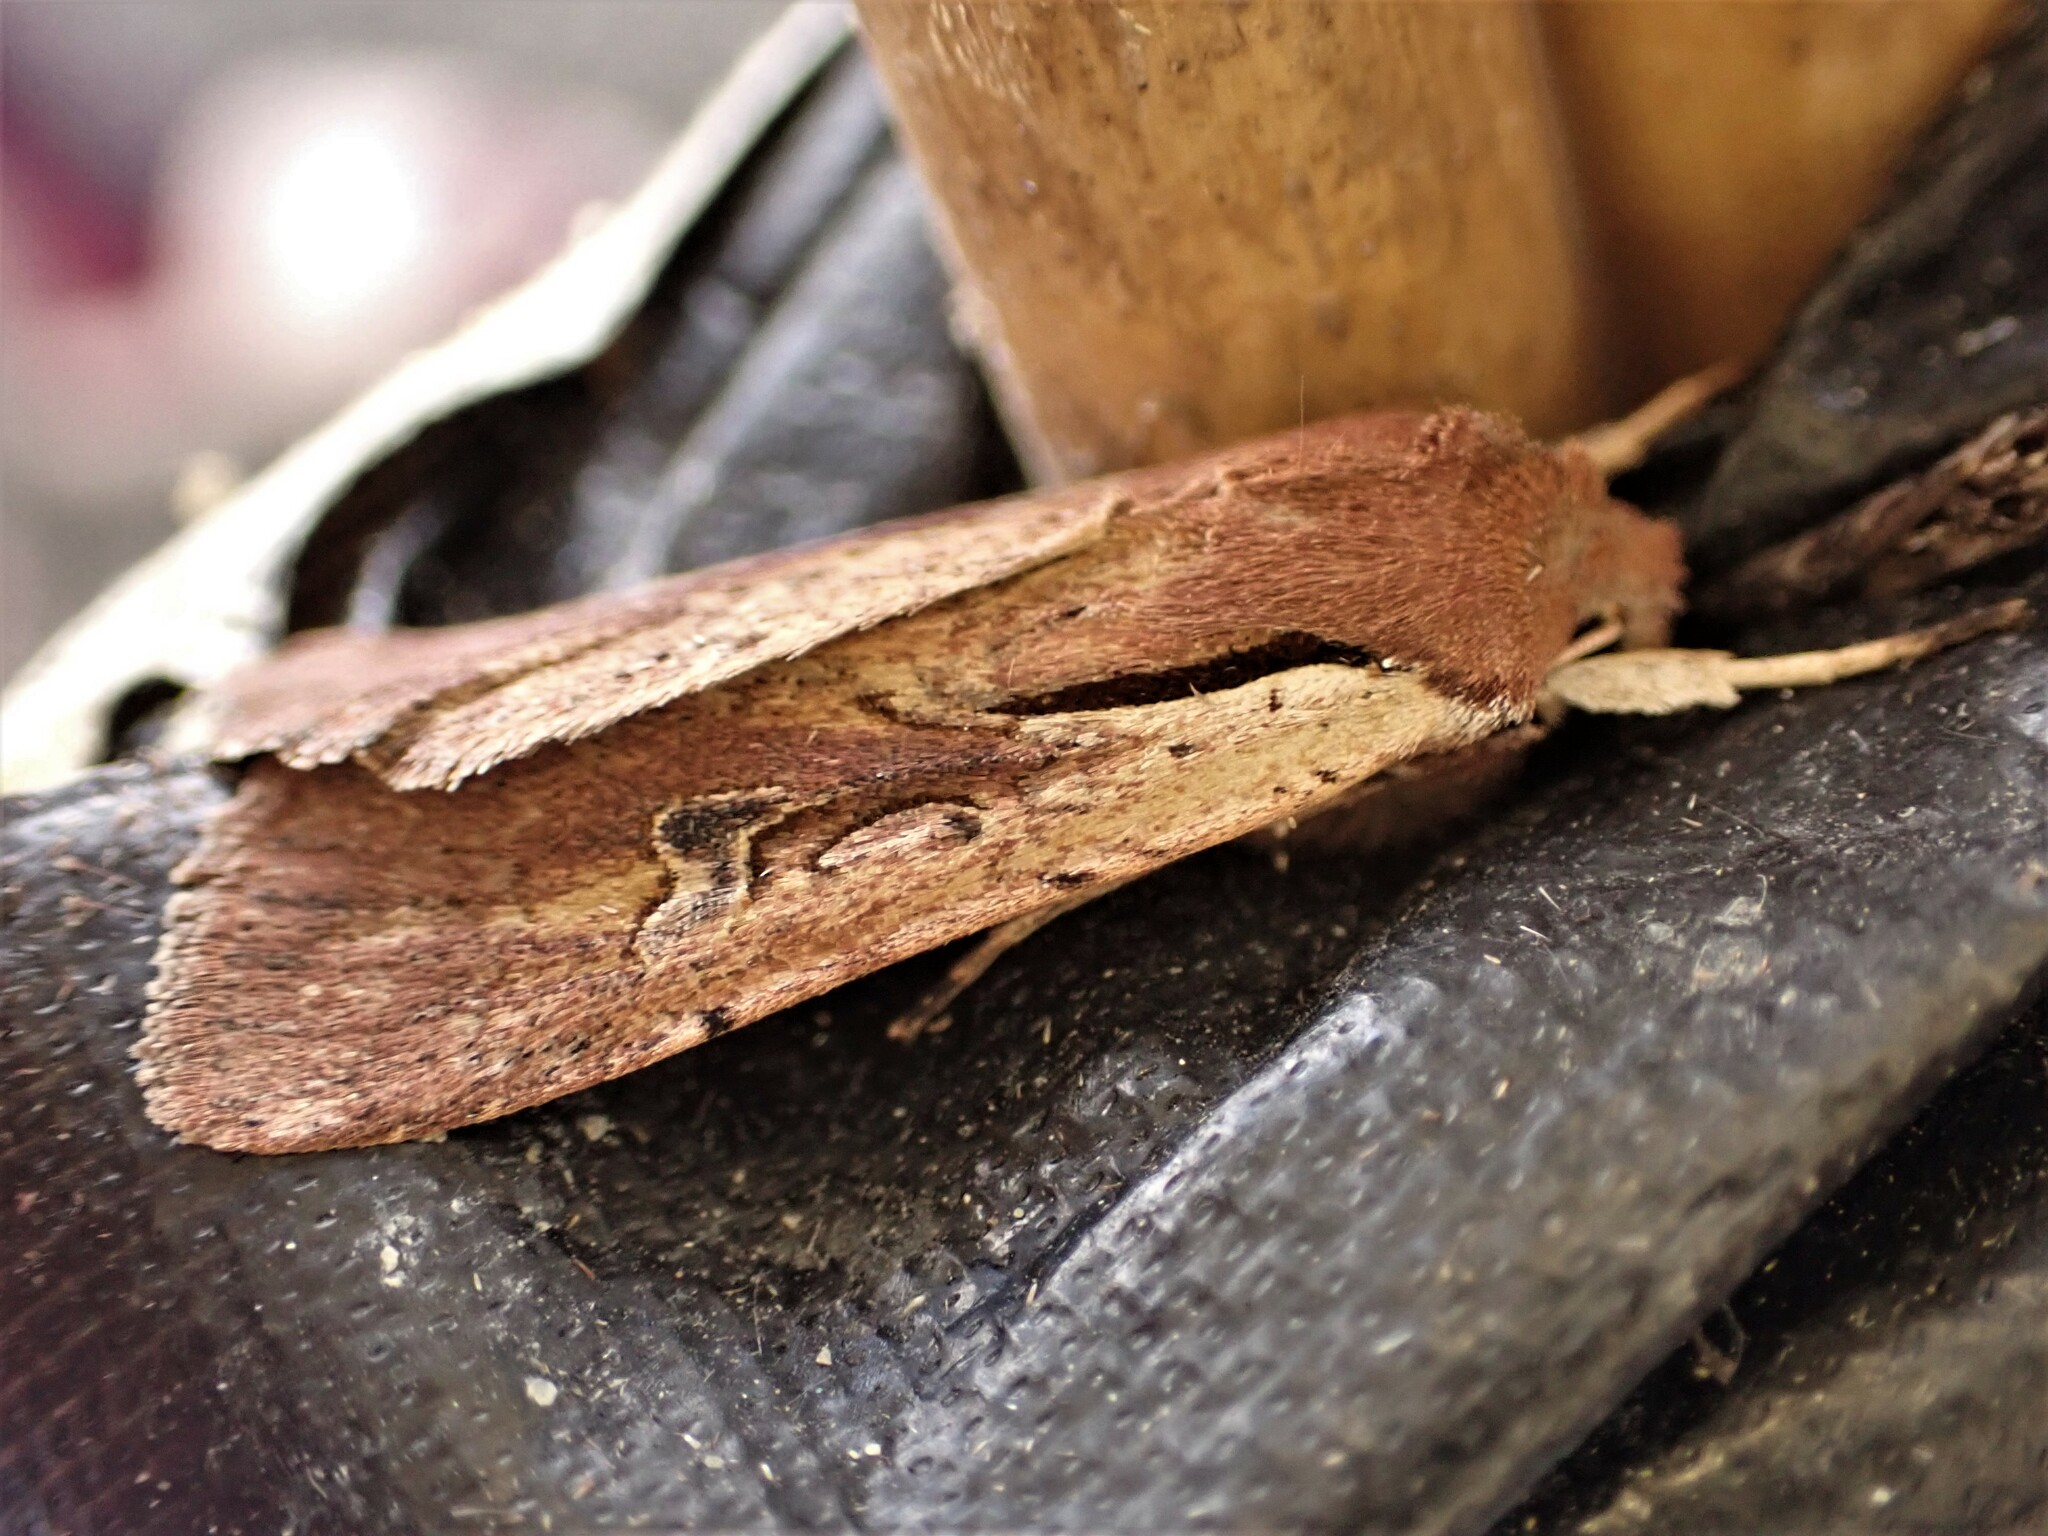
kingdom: Animalia
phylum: Arthropoda
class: Insecta
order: Lepidoptera
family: Noctuidae
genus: Ichneutica
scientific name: Ichneutica atristriga
